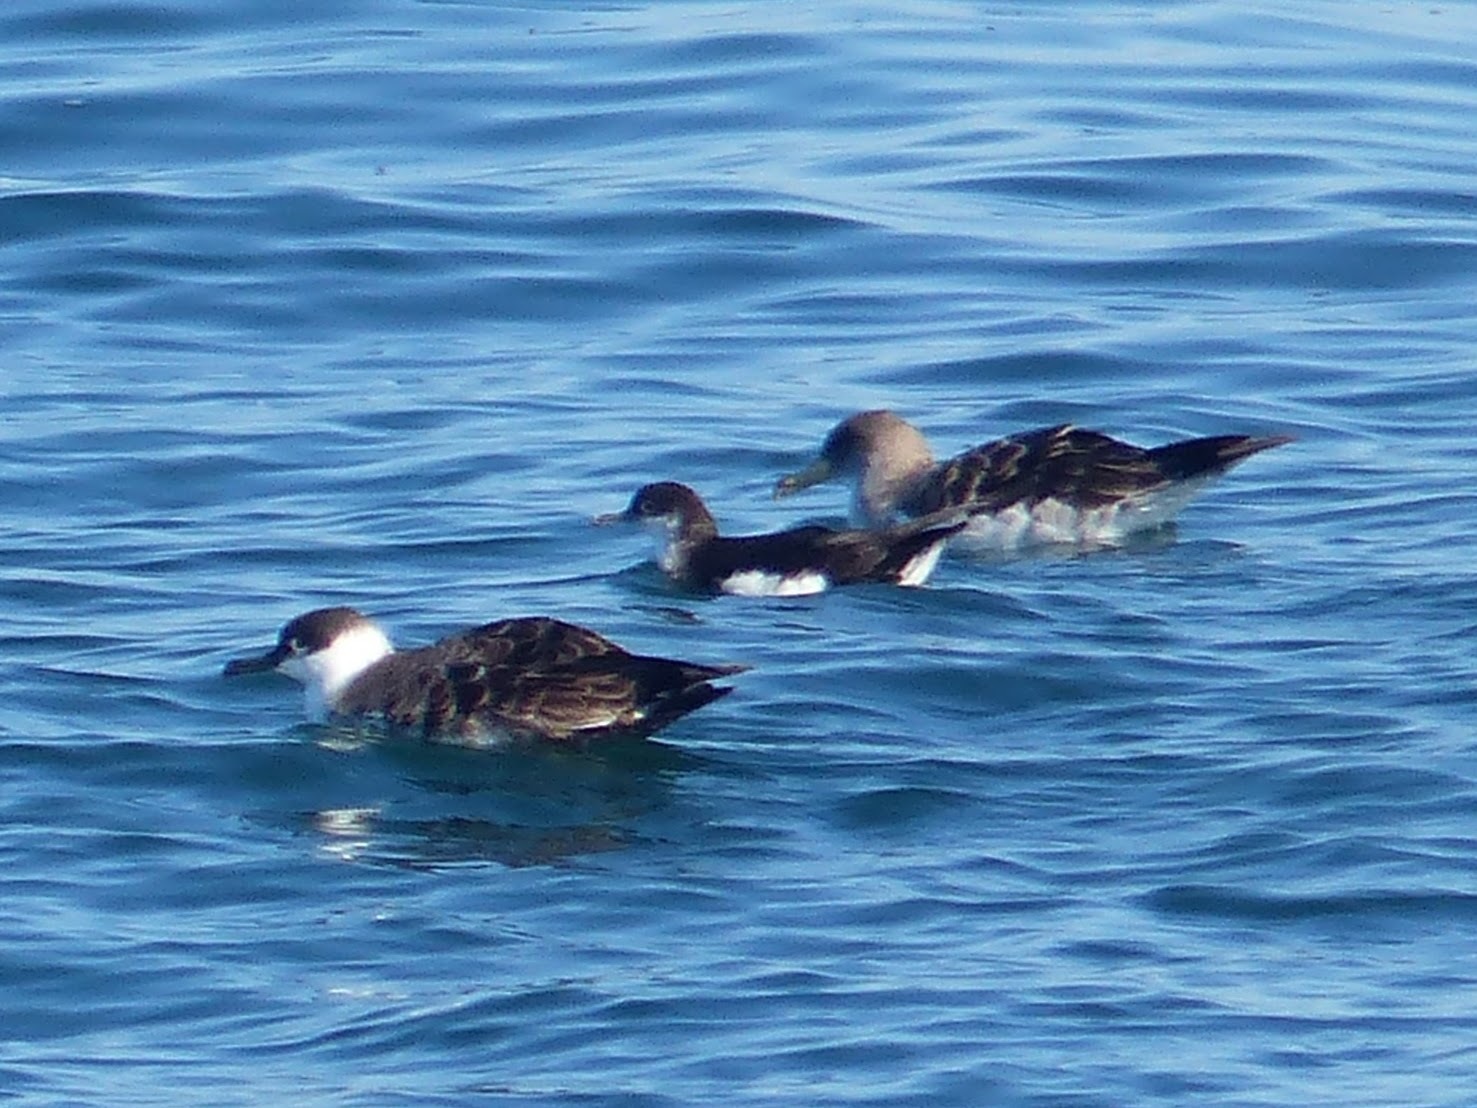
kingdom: Animalia
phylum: Chordata
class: Aves
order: Procellariiformes
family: Procellariidae
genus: Calonectris
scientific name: Calonectris diomedea
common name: Cory's shearwater
